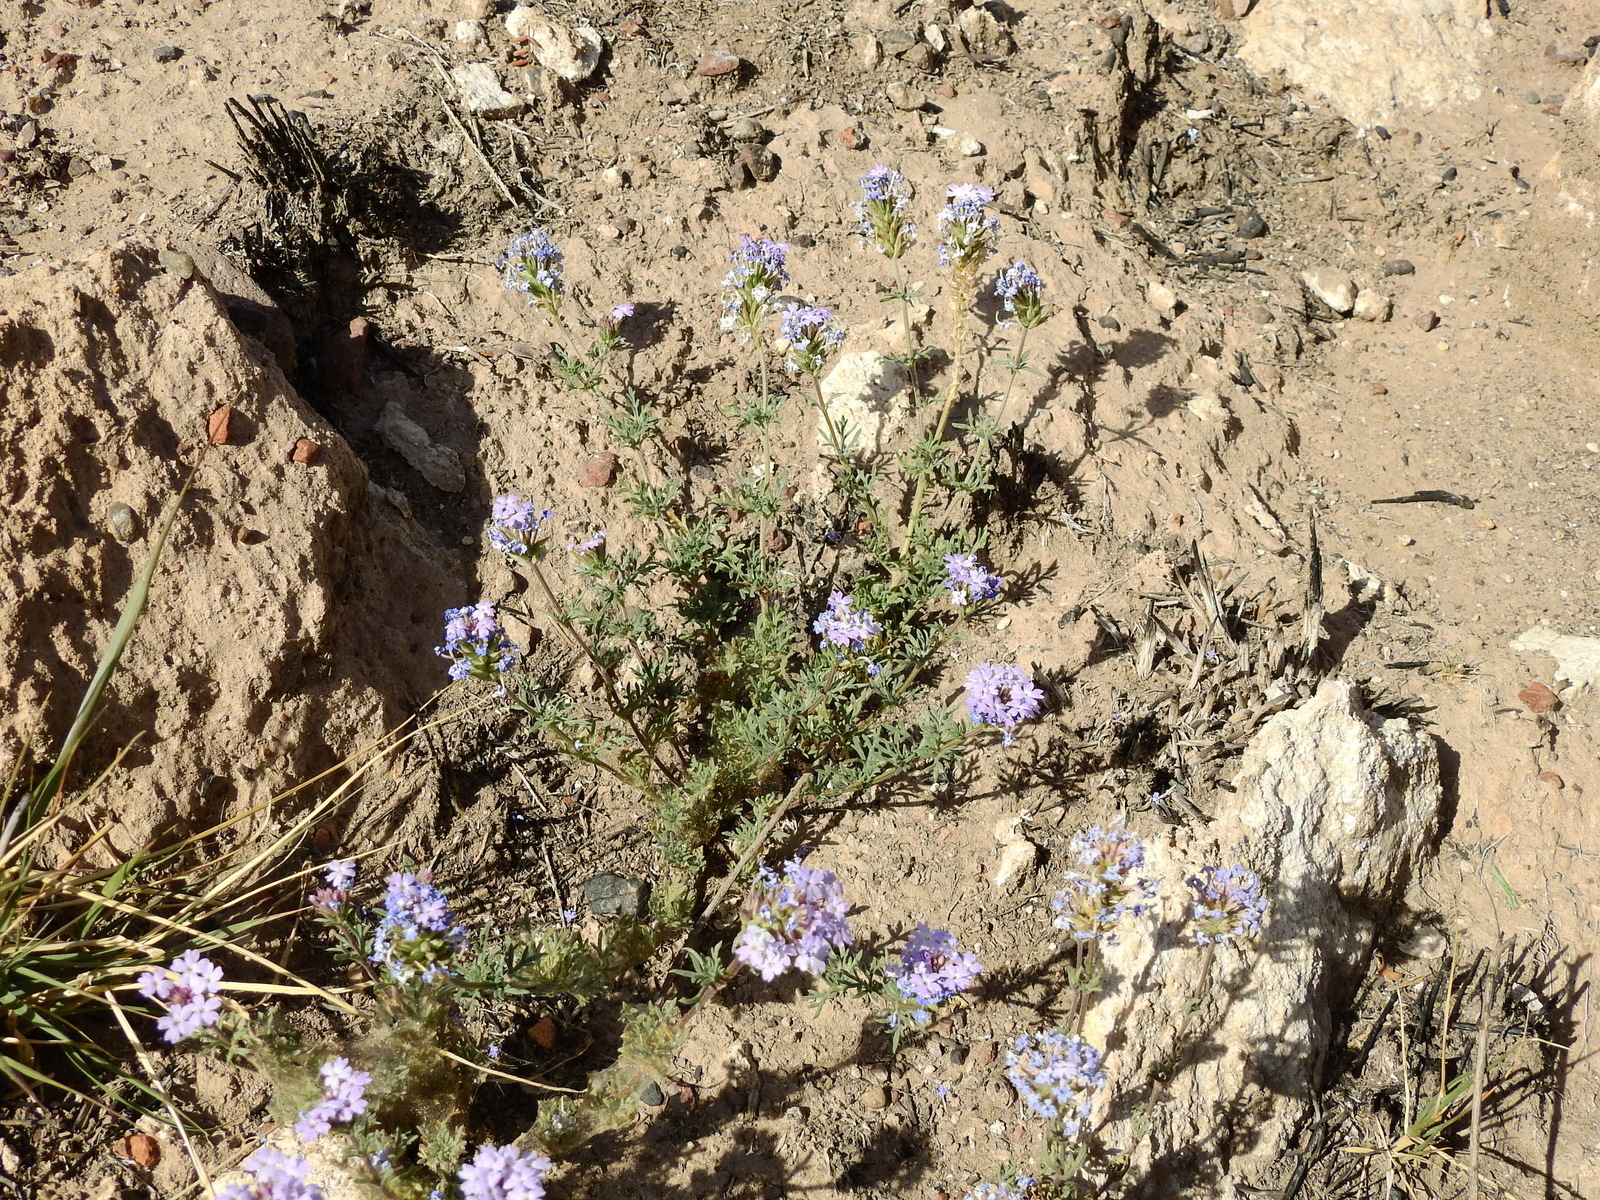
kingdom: Plantae
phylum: Tracheophyta
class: Magnoliopsida
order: Lamiales
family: Verbenaceae
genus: Verbena
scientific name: Verbena mendocina
